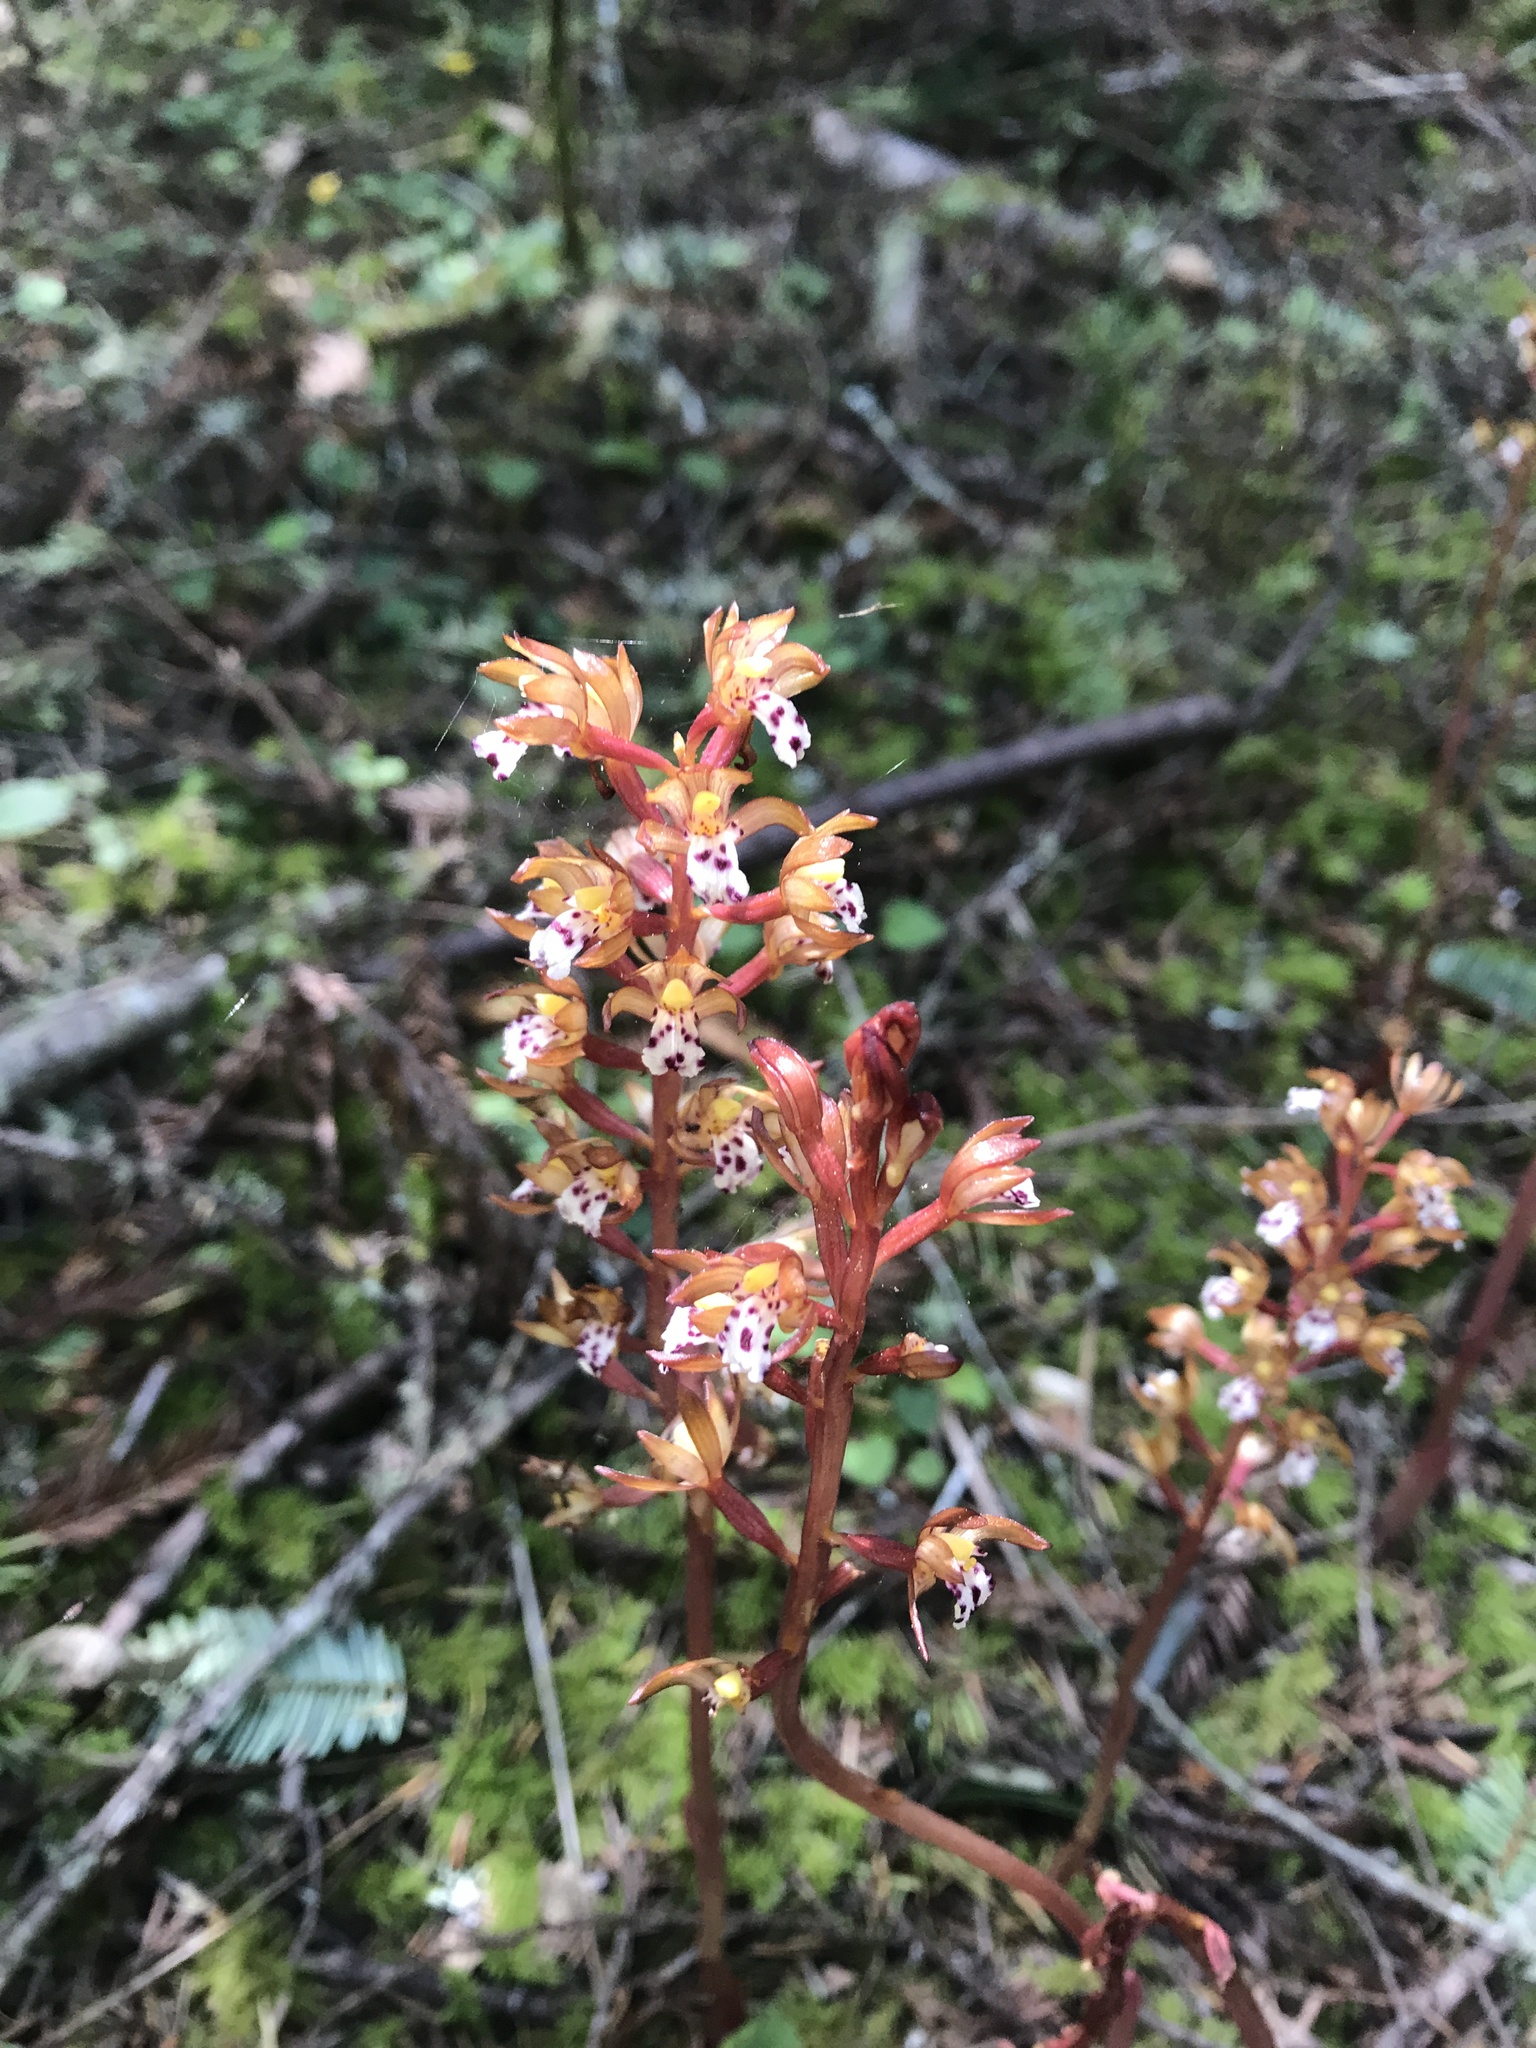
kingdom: Plantae
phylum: Tracheophyta
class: Liliopsida
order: Asparagales
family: Orchidaceae
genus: Corallorhiza
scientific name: Corallorhiza maculata
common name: Spotted coralroot
